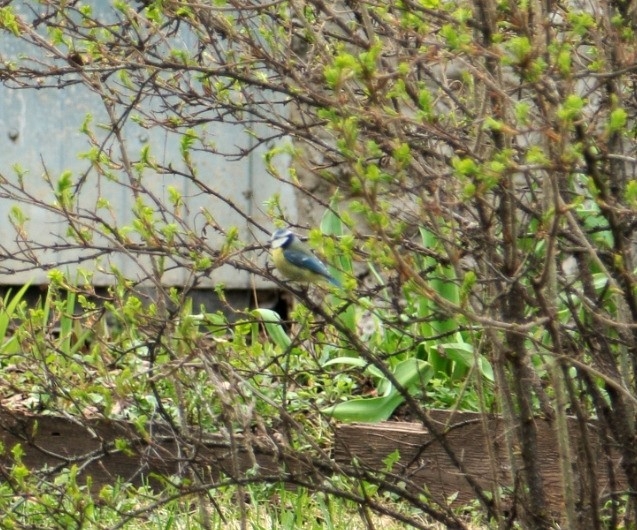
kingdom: Animalia
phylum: Chordata
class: Aves
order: Passeriformes
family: Paridae
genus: Cyanistes
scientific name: Cyanistes caeruleus
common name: Eurasian blue tit
